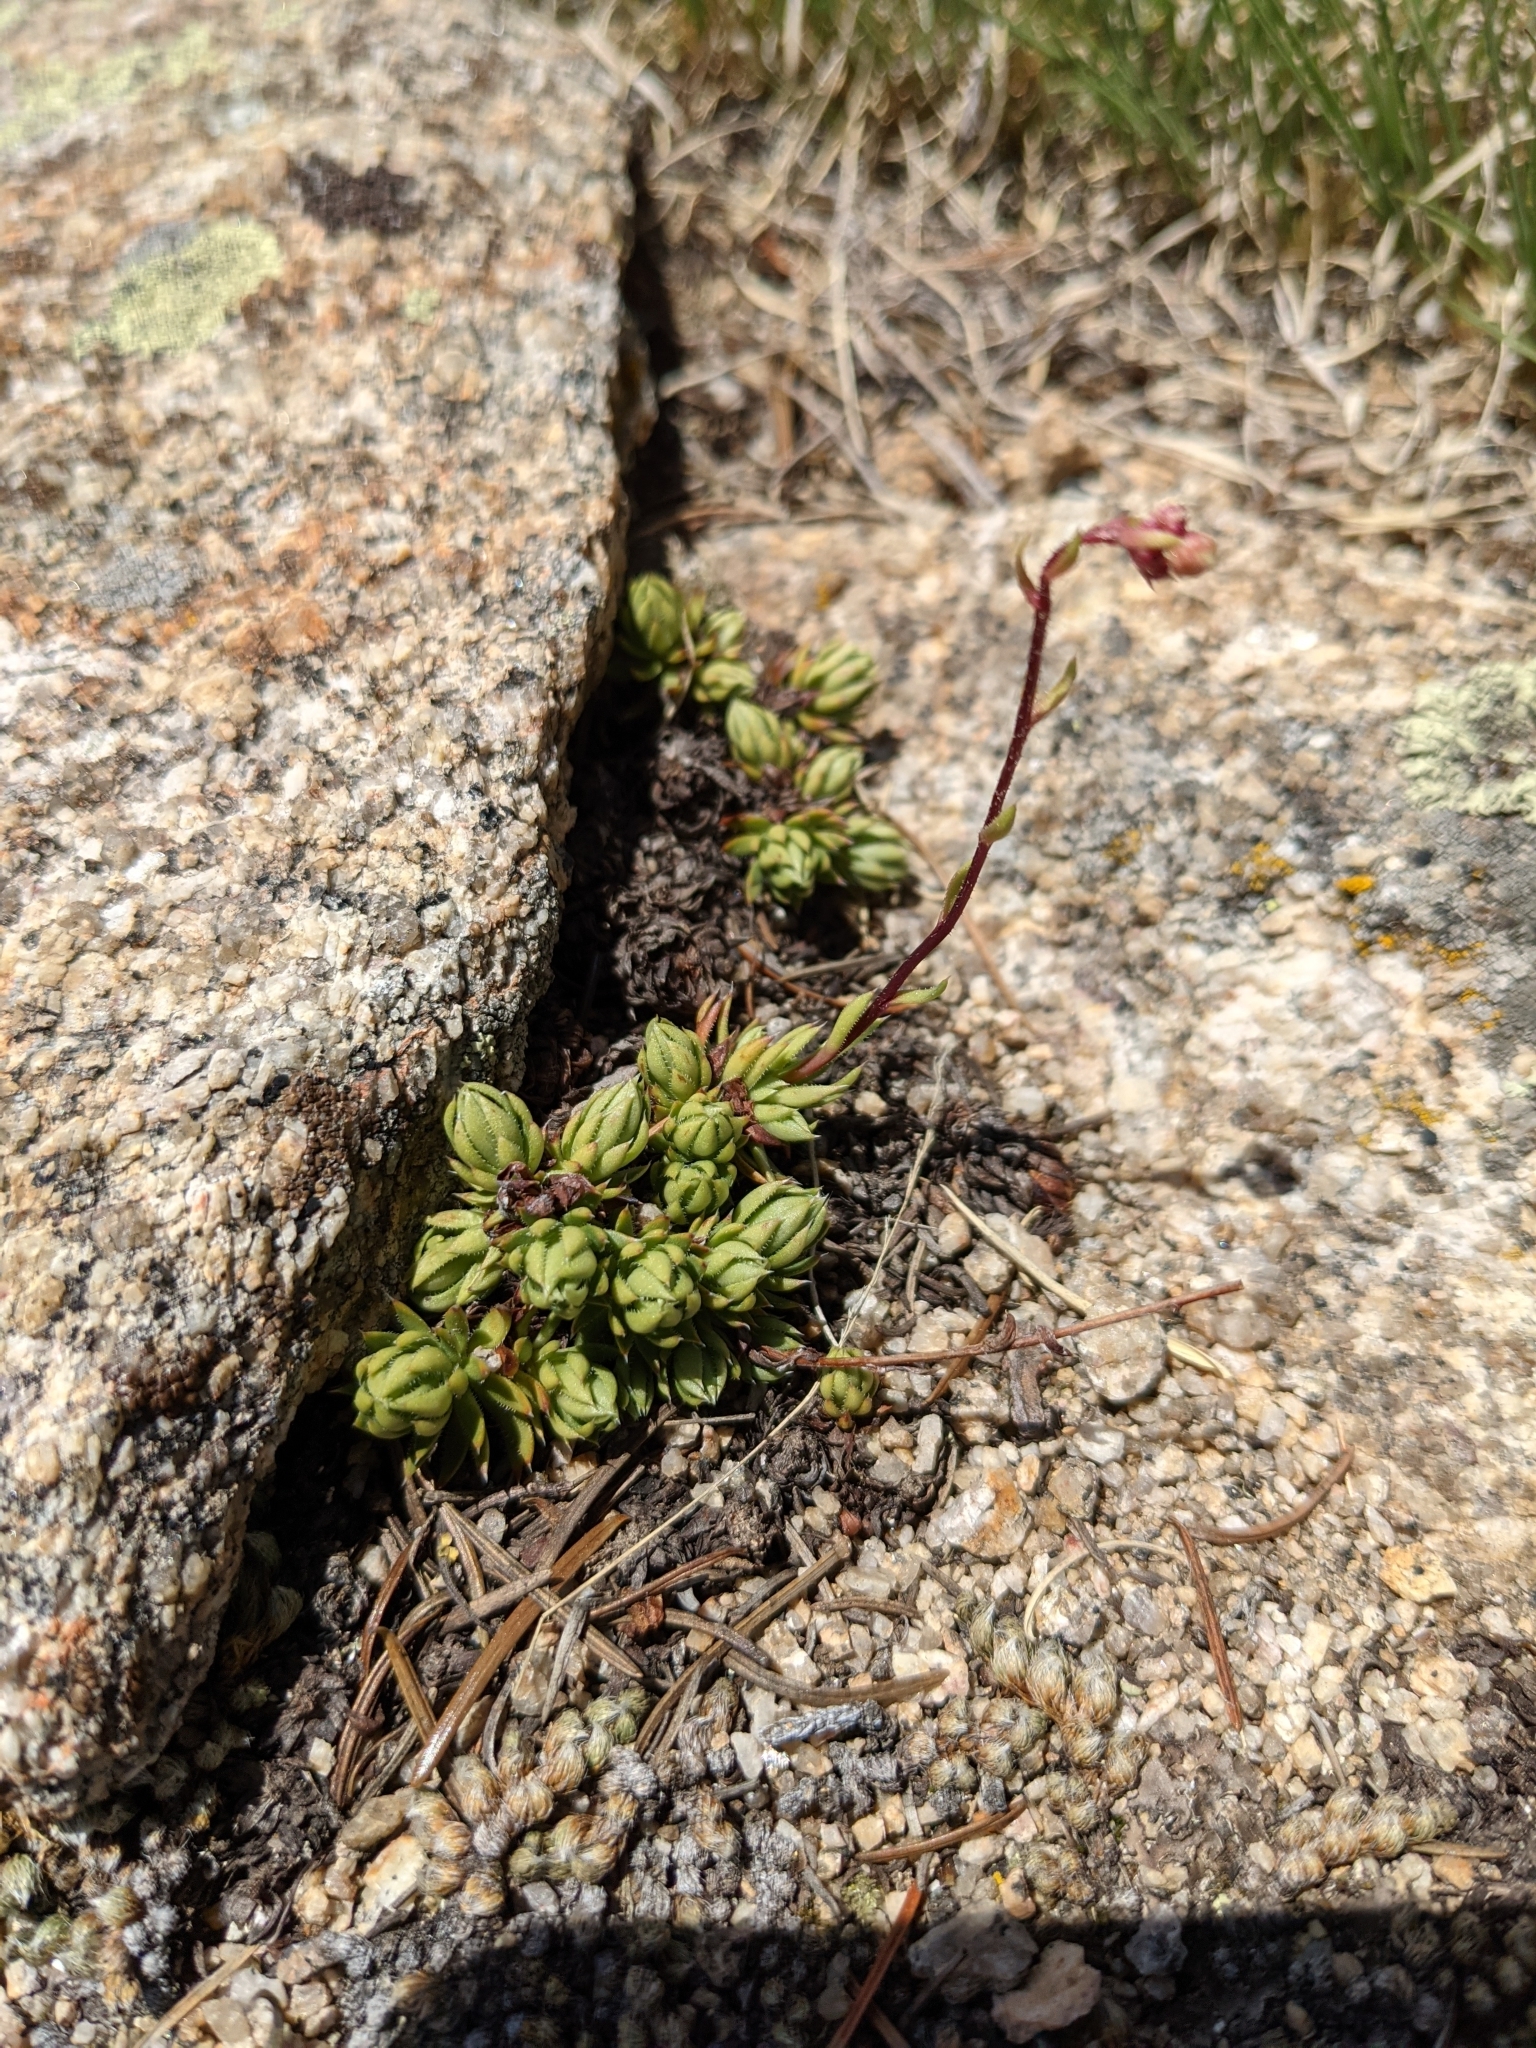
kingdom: Plantae
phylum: Tracheophyta
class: Magnoliopsida
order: Saxifragales
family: Saxifragaceae
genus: Saxifraga
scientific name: Saxifraga bronchialis
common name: Matted saxifrage
